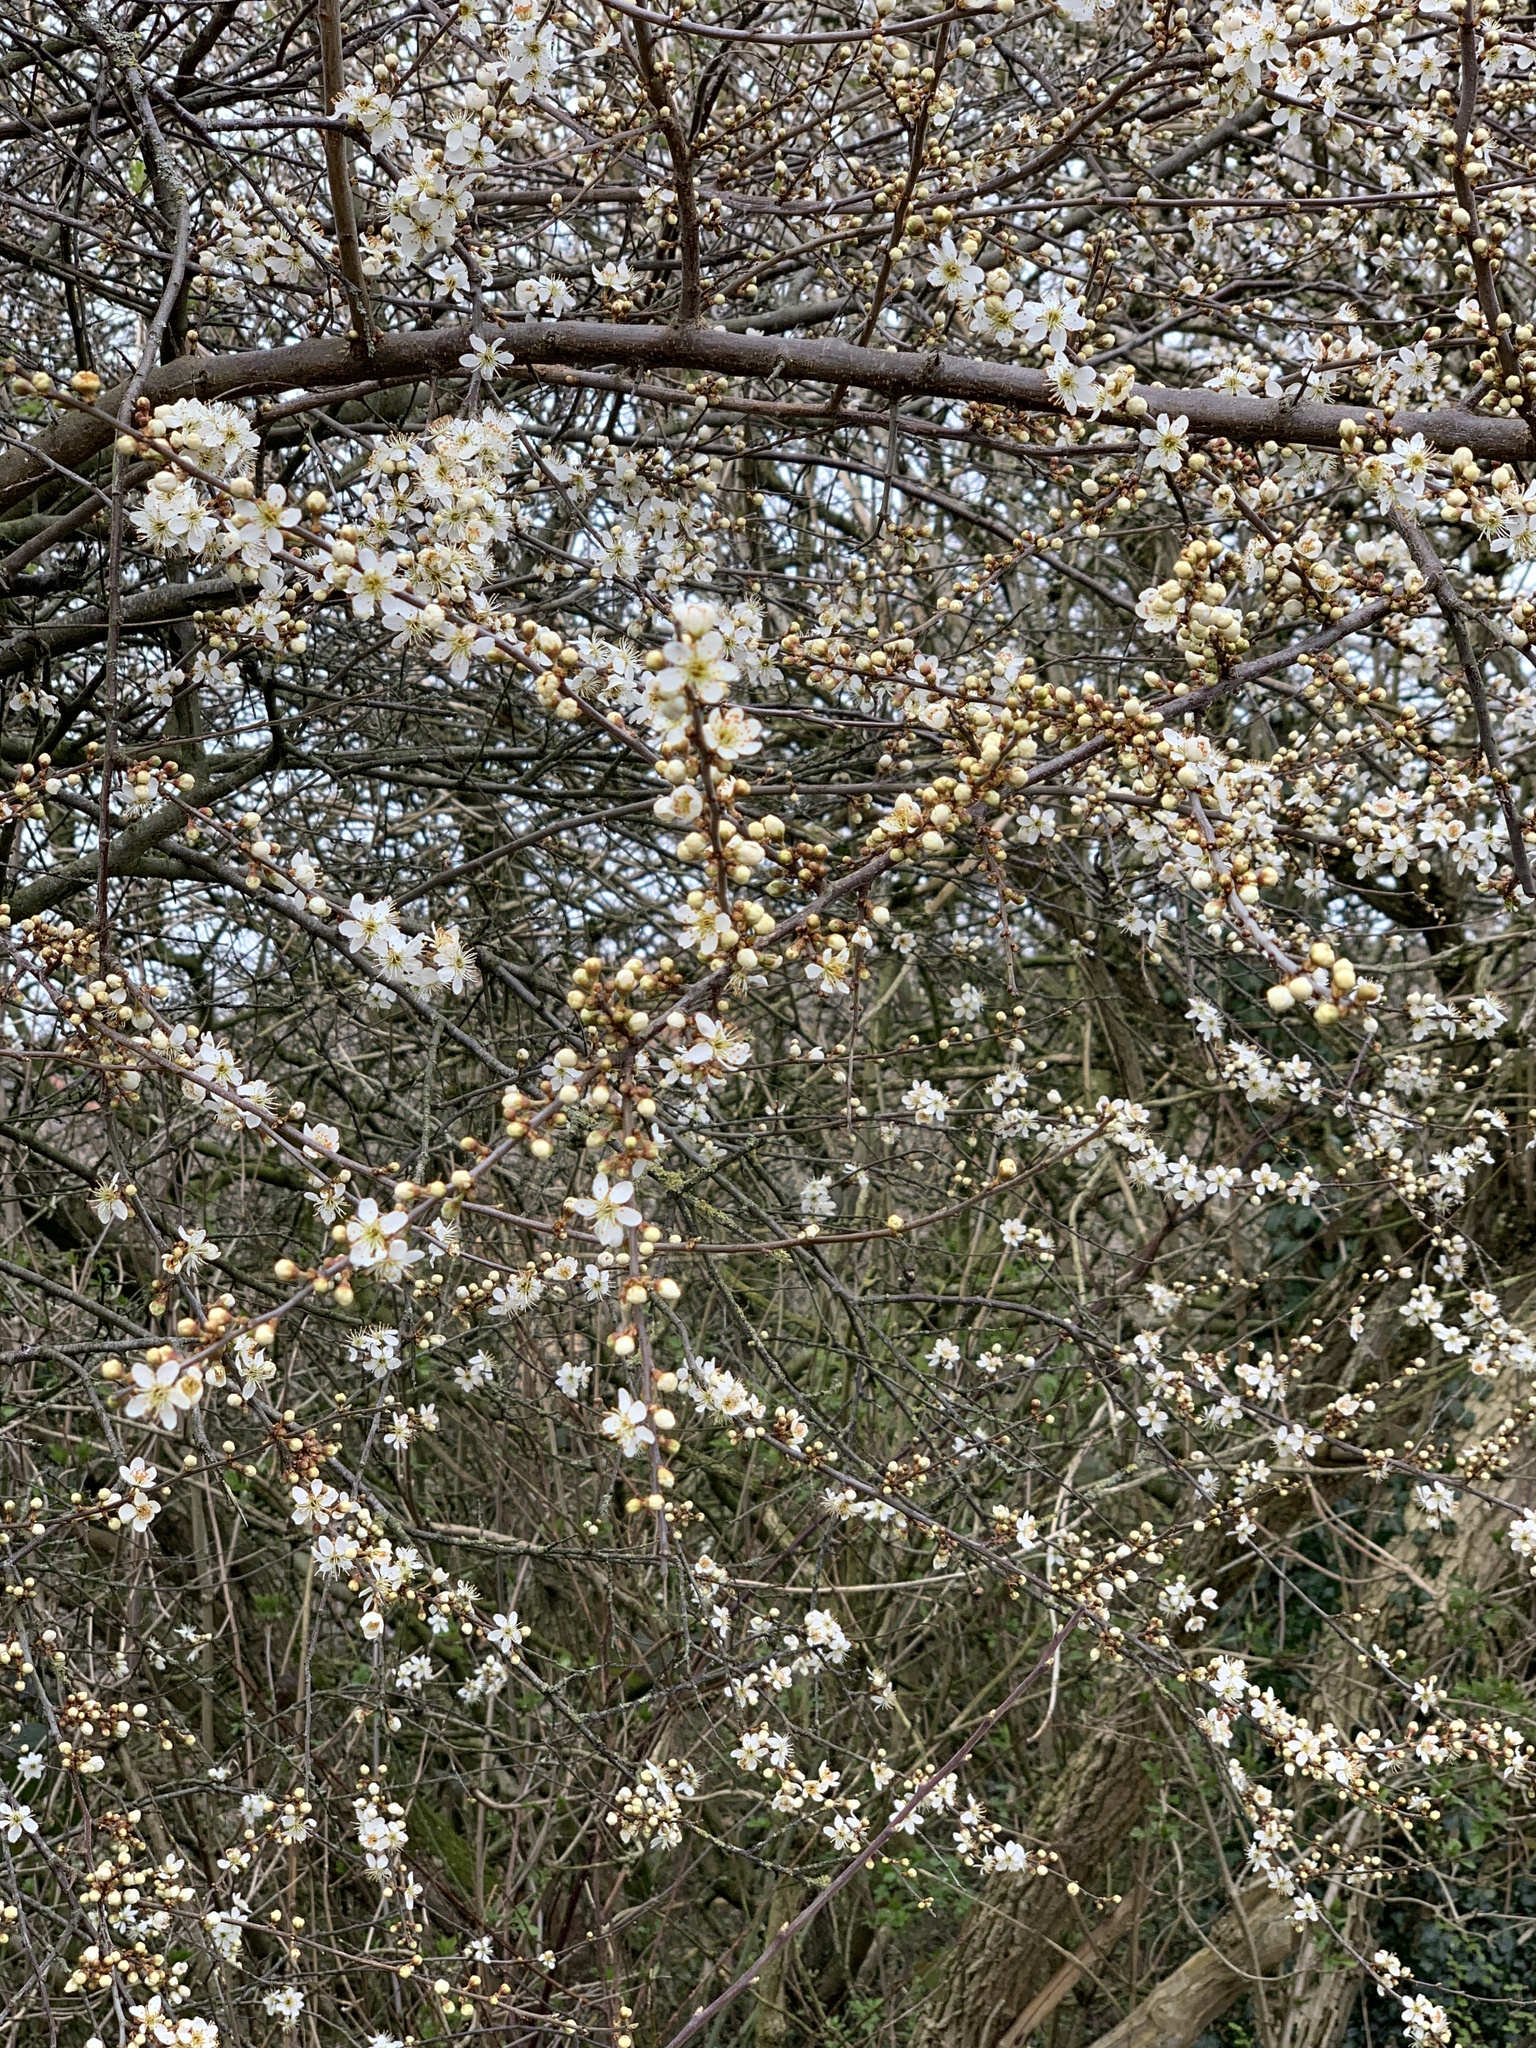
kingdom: Plantae
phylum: Tracheophyta
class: Magnoliopsida
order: Rosales
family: Rosaceae
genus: Prunus
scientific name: Prunus spinosa
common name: Blackthorn
